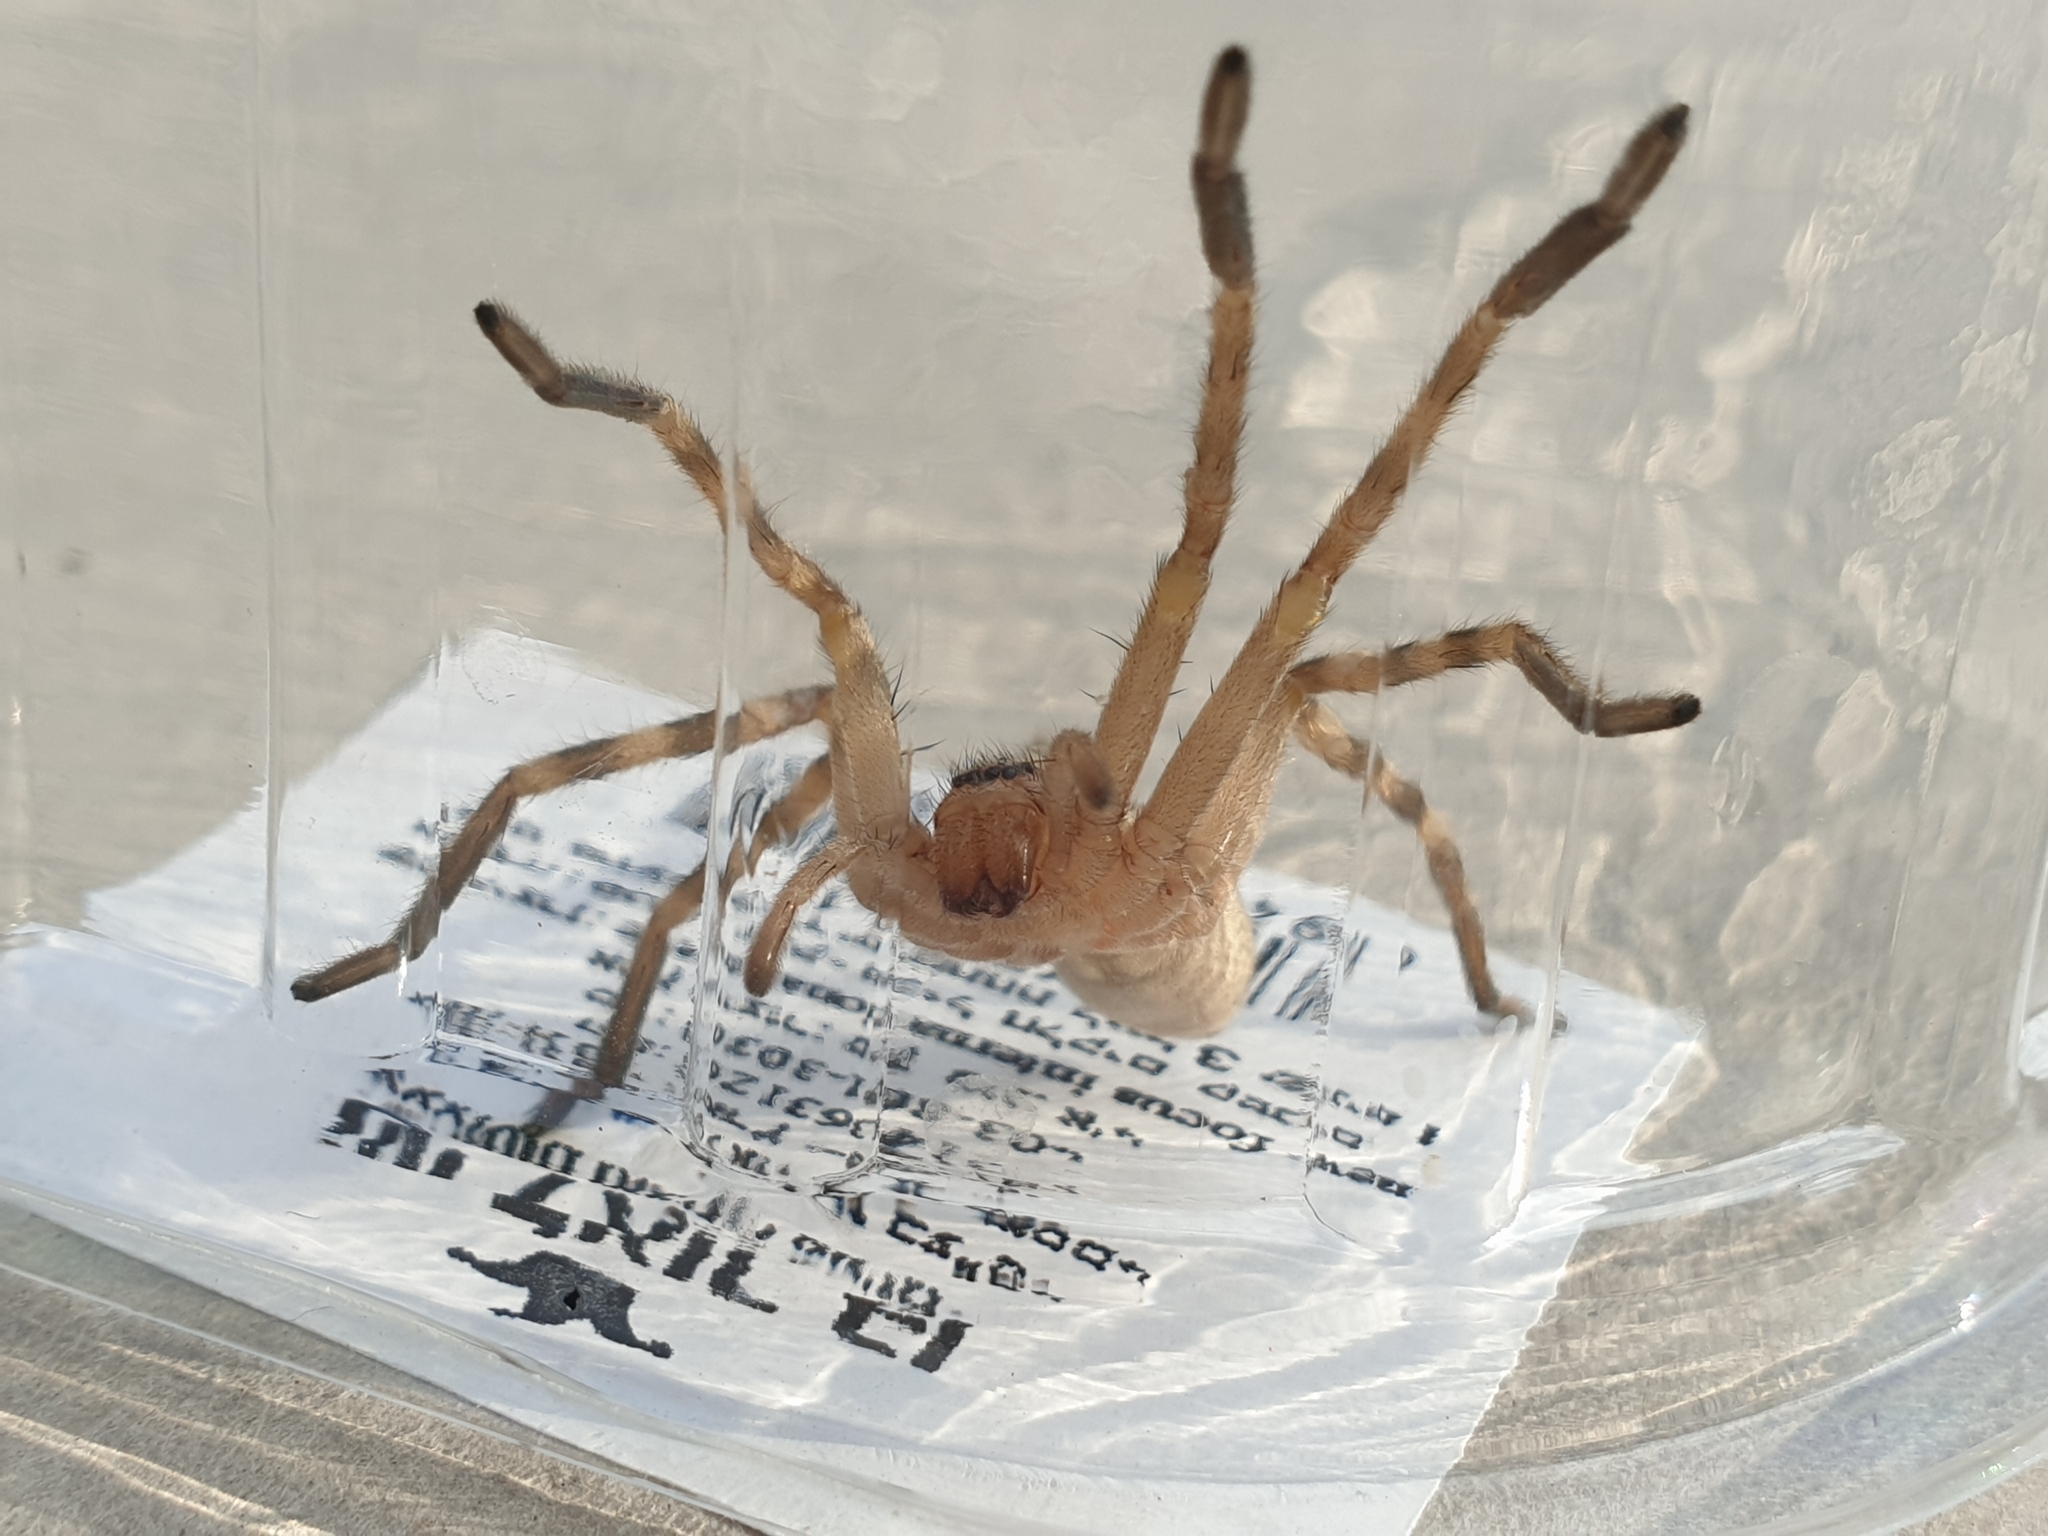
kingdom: Animalia
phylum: Arthropoda
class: Arachnida
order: Araneae
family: Sparassidae
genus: Eusparassus
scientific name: Eusparassus walckenaeri
